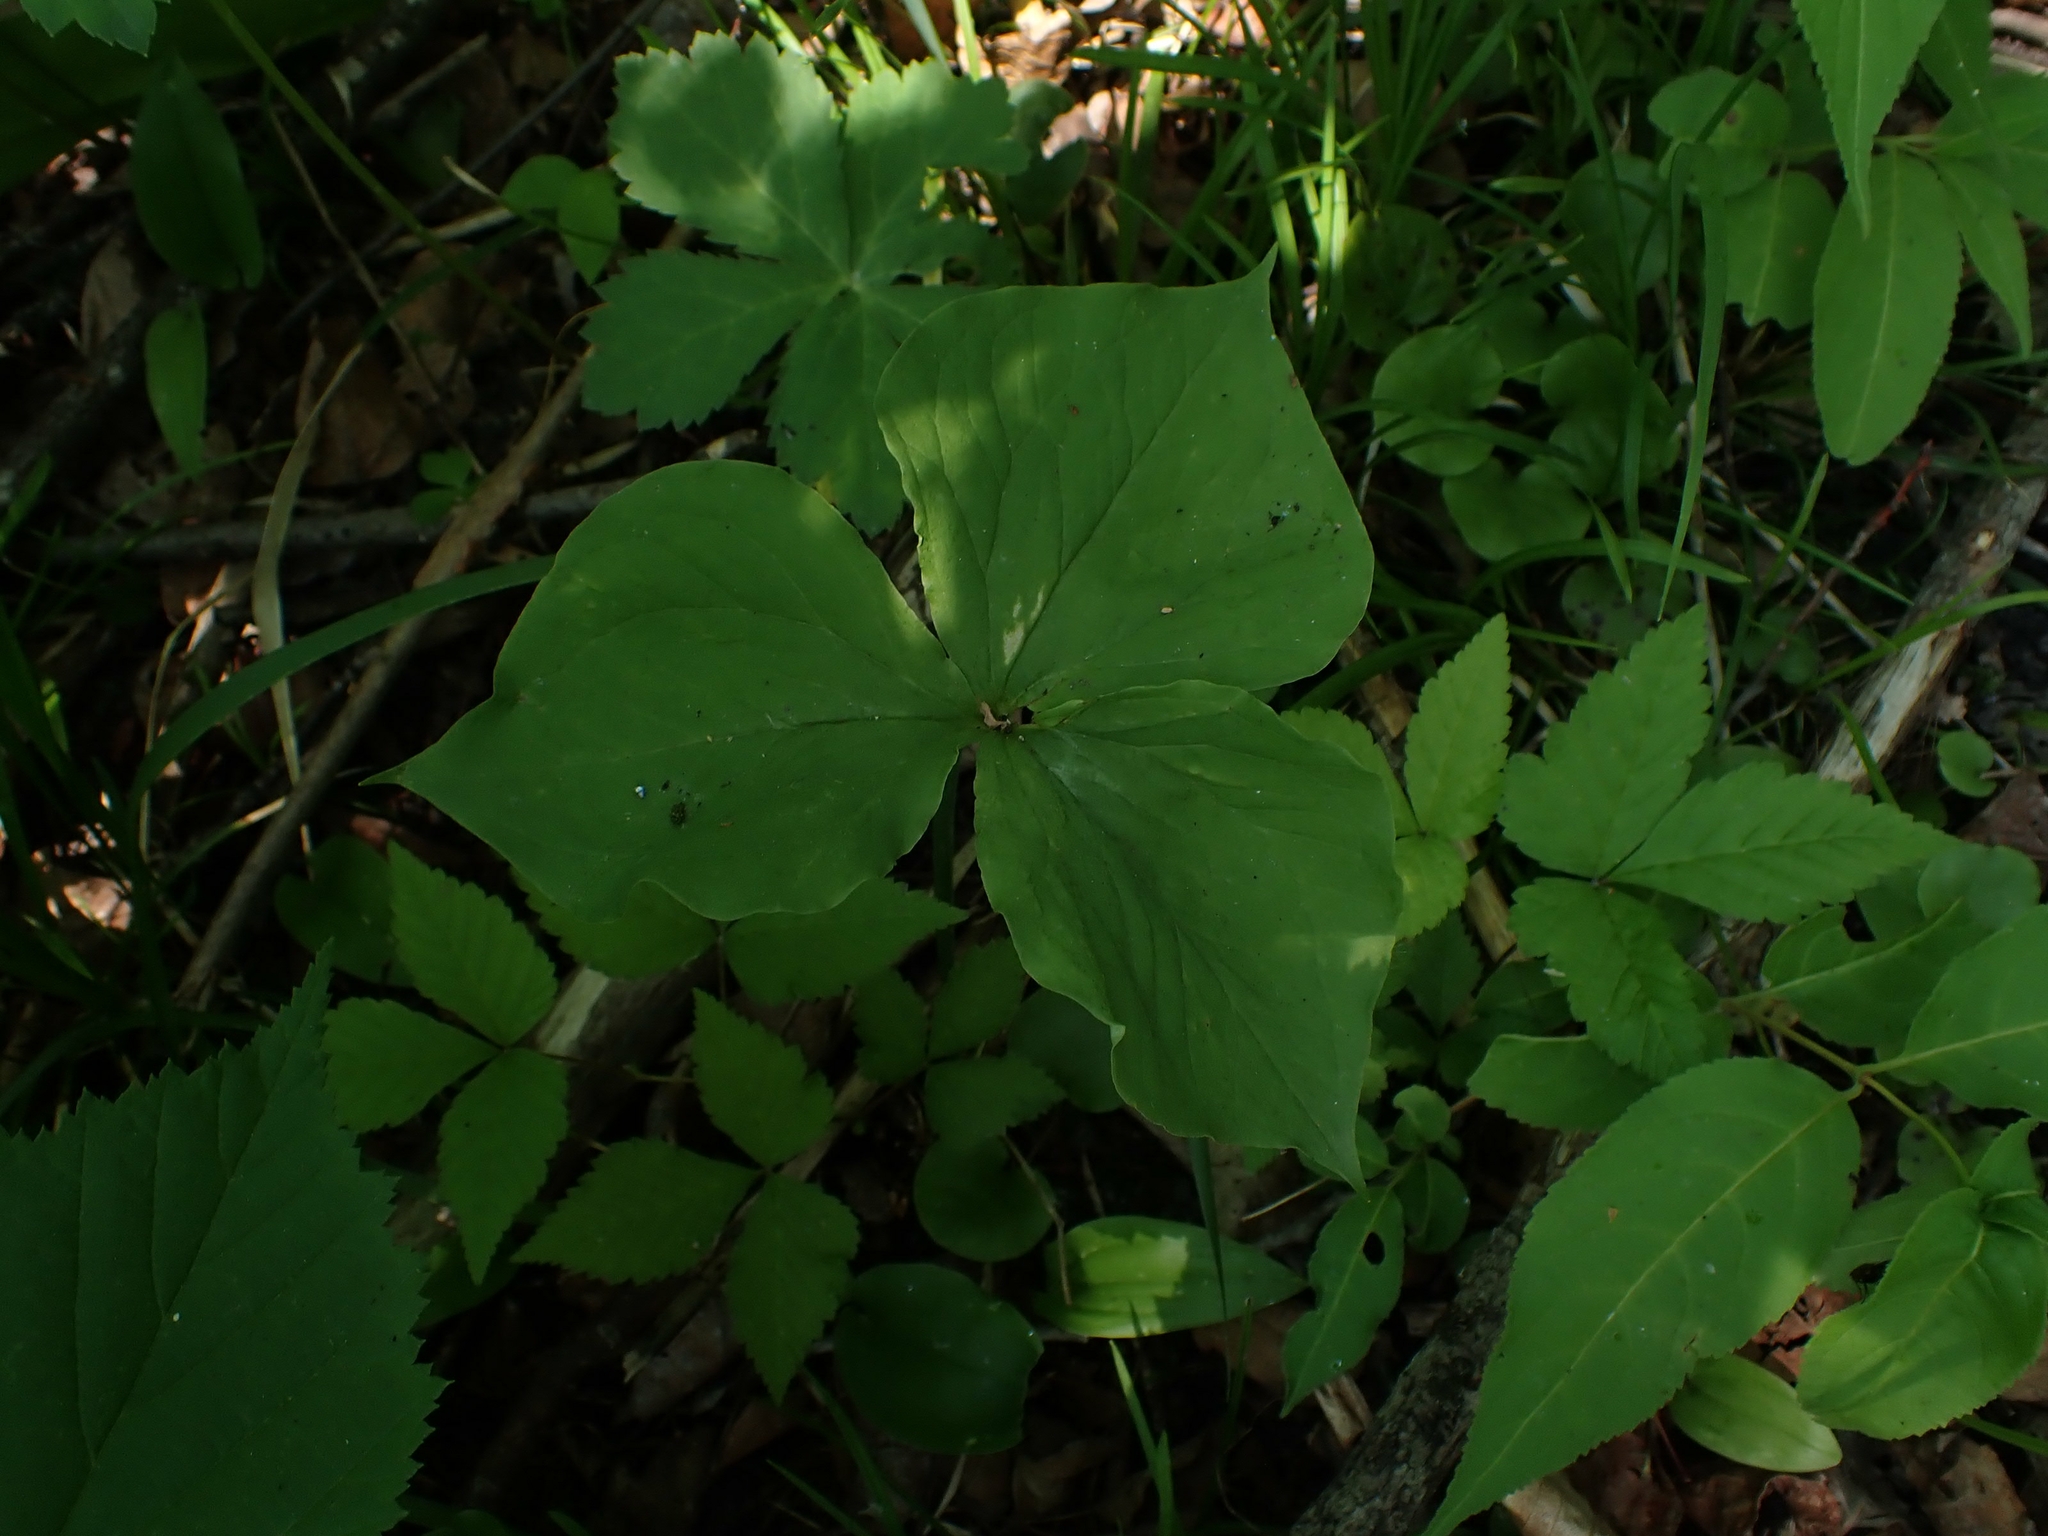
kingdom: Plantae
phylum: Tracheophyta
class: Liliopsida
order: Liliales
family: Melanthiaceae
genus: Trillium
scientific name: Trillium cernuum
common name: Nodding trillium
